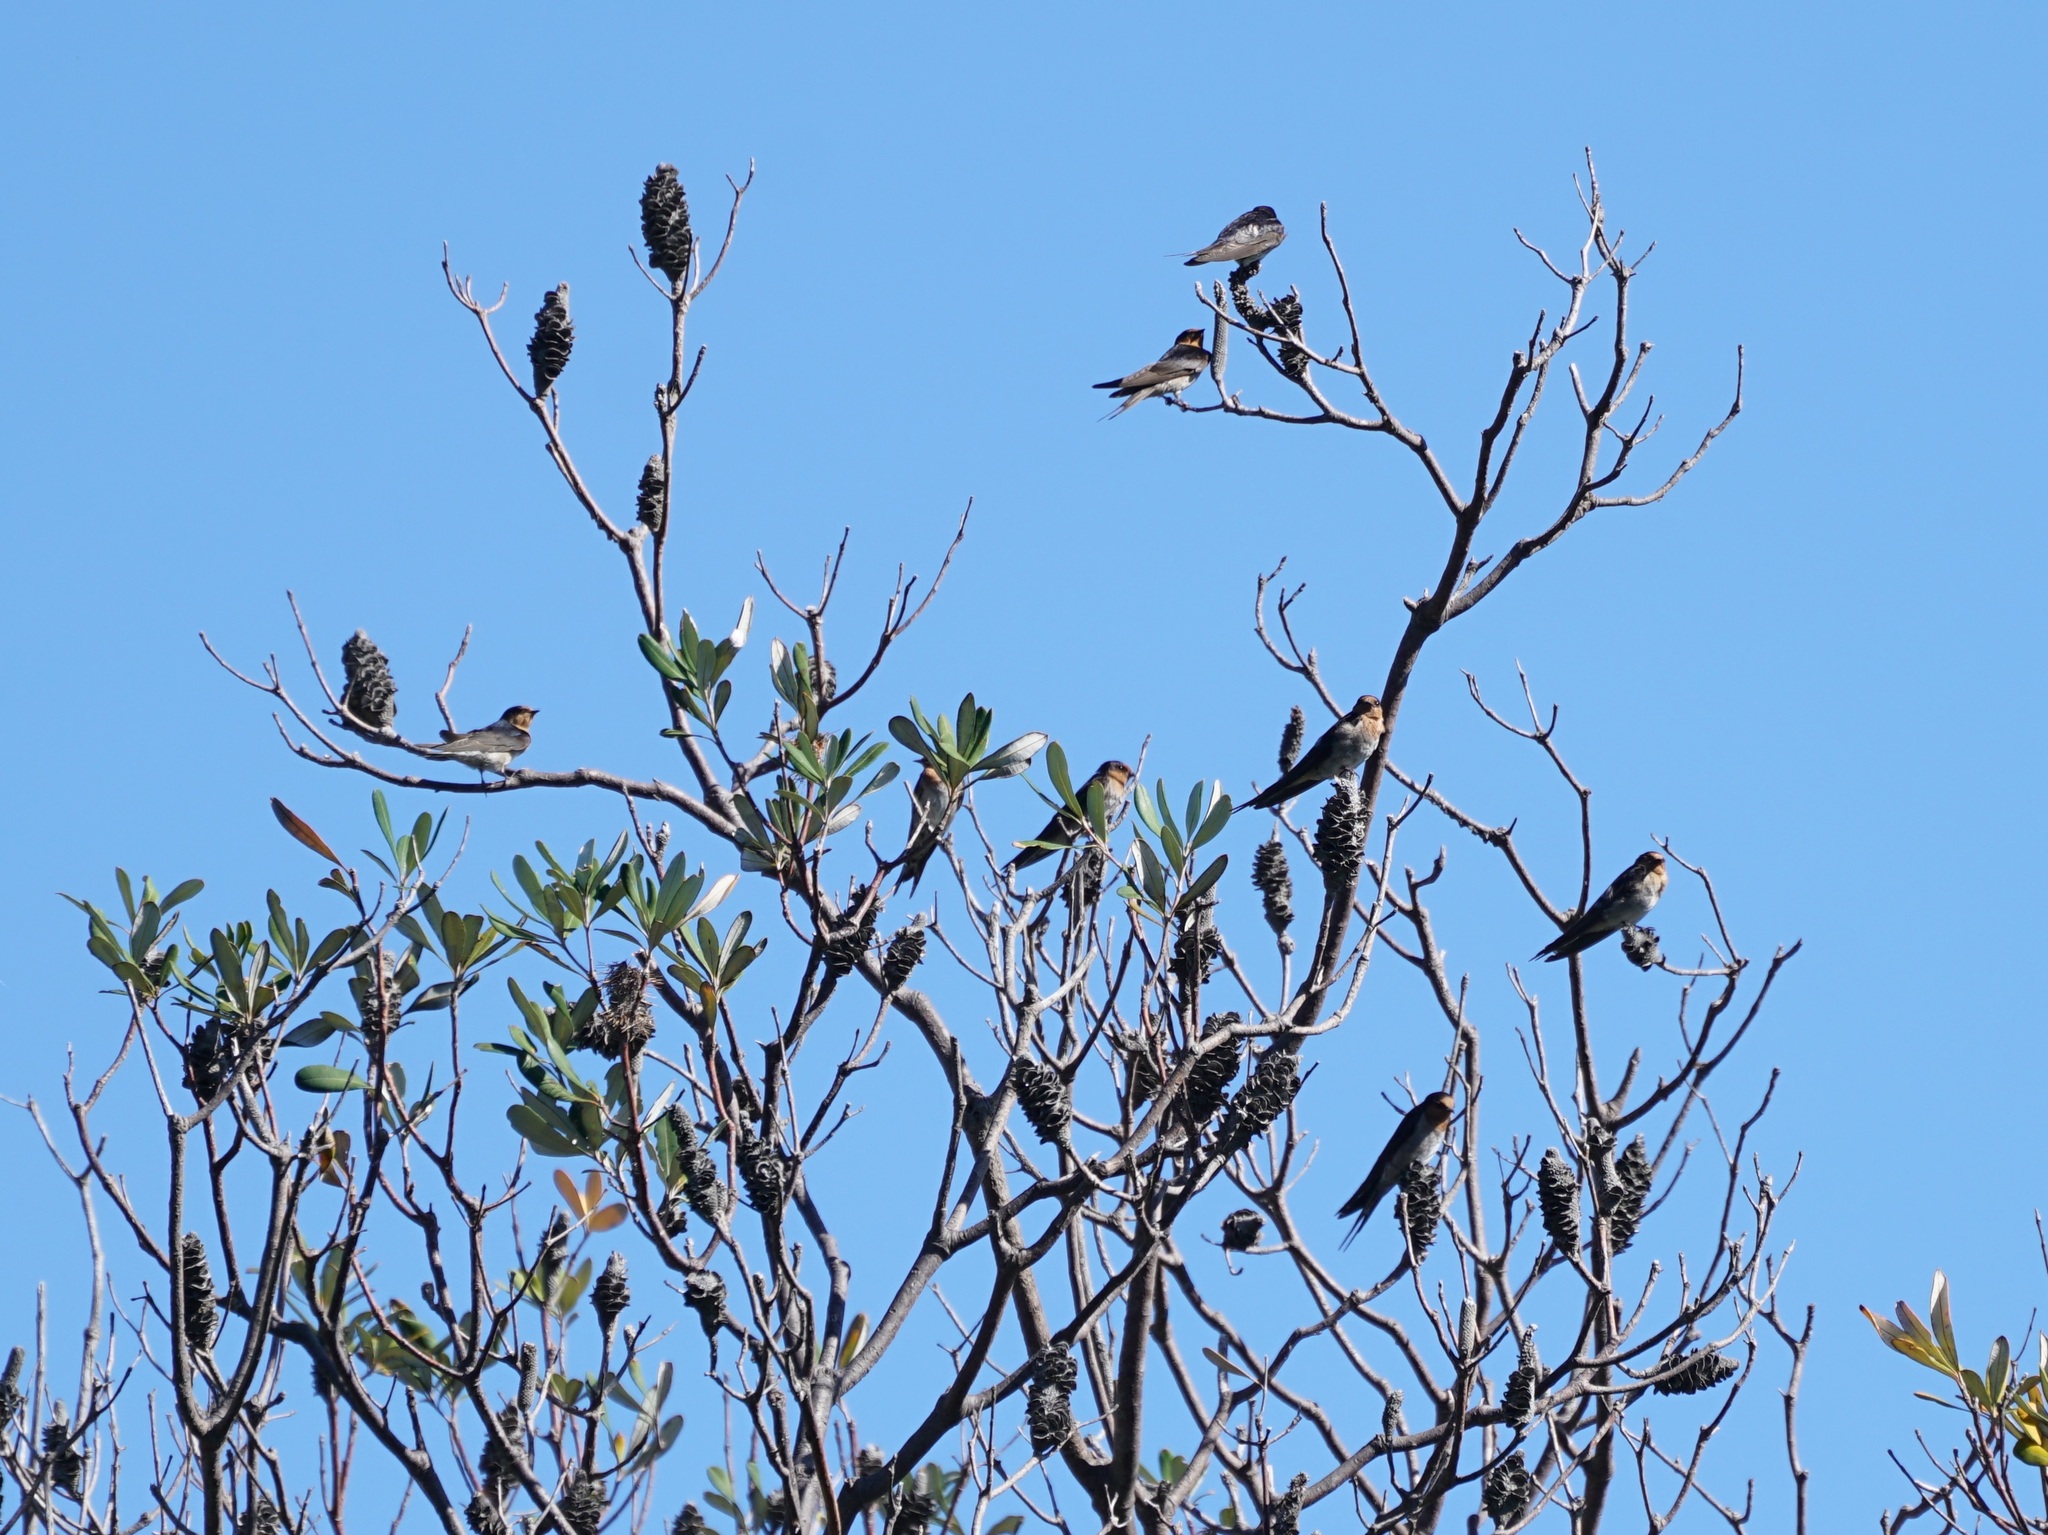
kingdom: Animalia
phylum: Chordata
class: Aves
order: Passeriformes
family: Hirundinidae
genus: Hirundo
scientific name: Hirundo neoxena
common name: Welcome swallow
